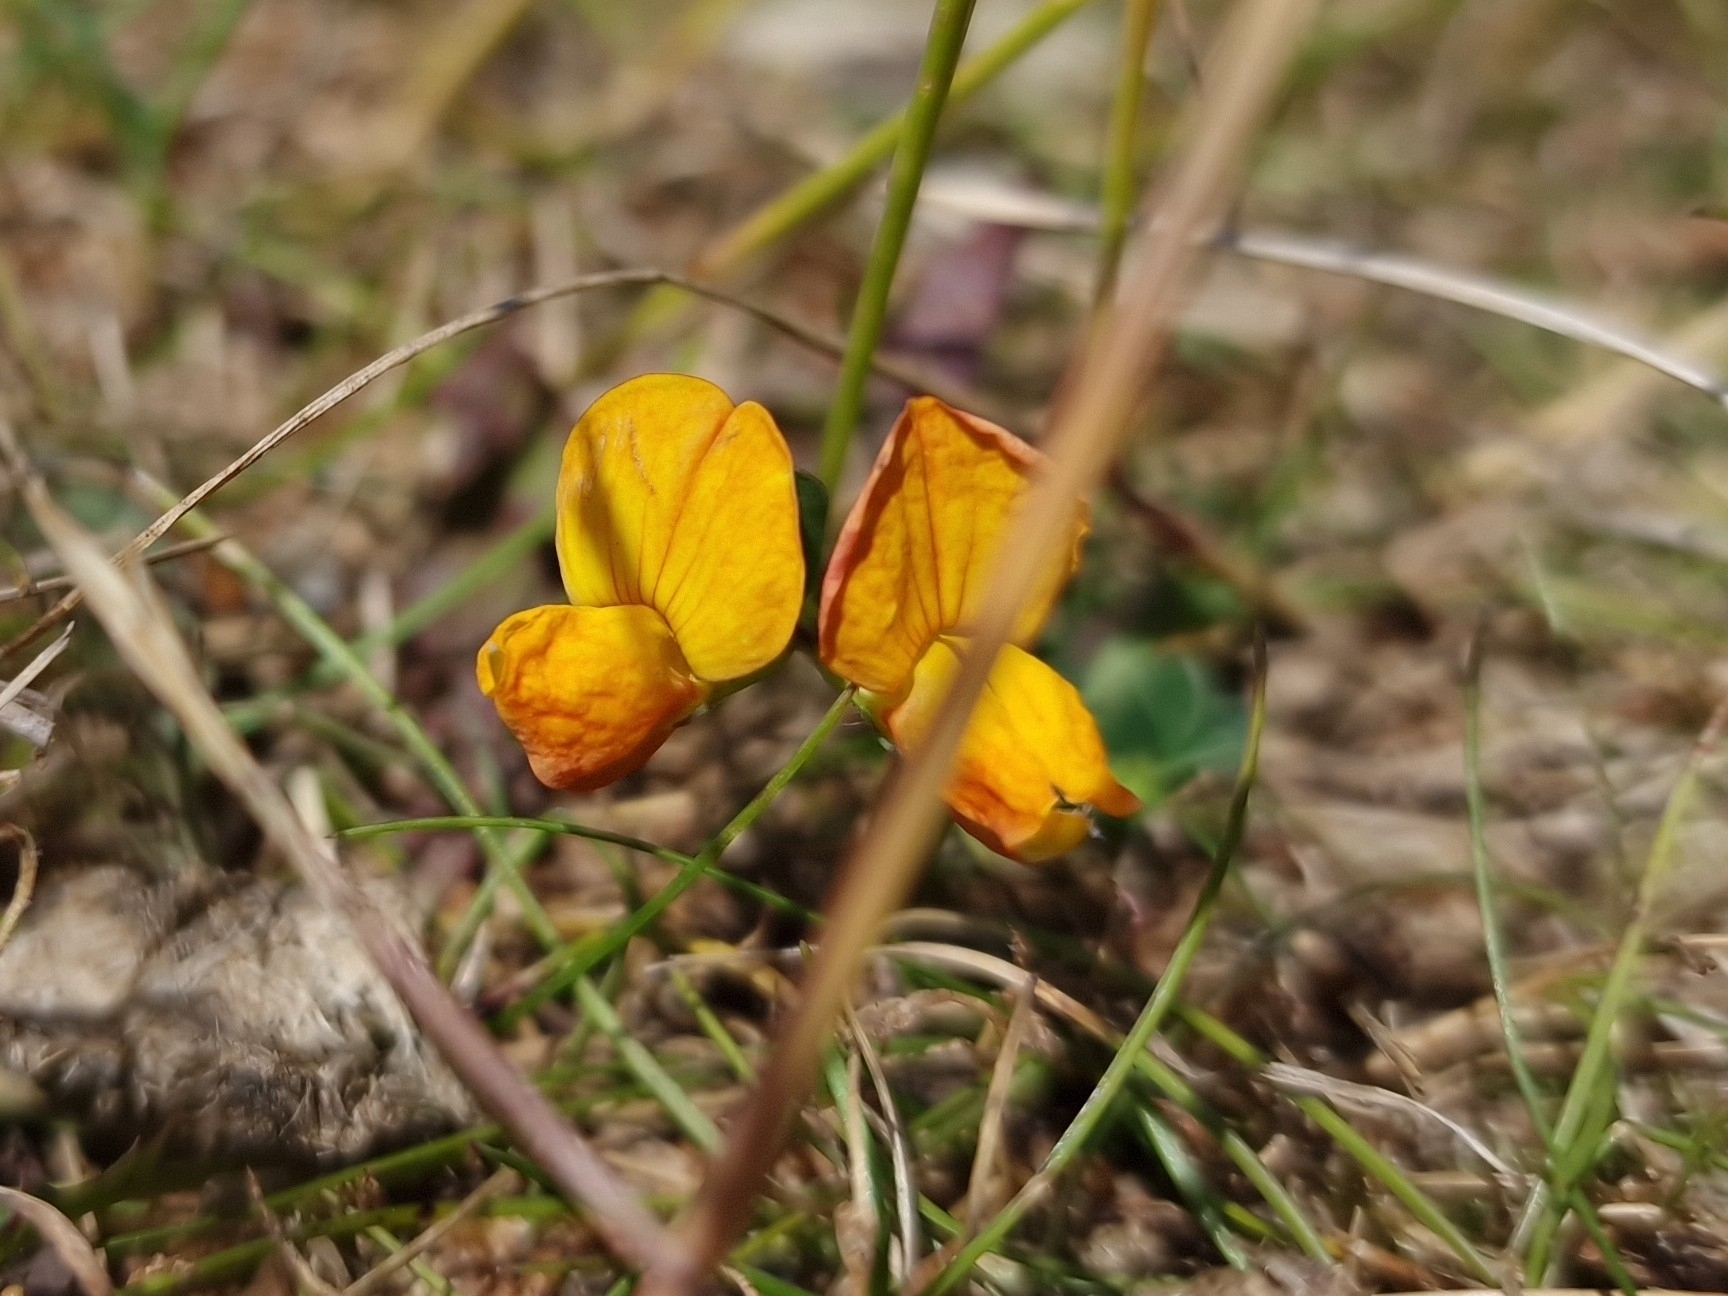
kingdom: Plantae
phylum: Tracheophyta
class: Magnoliopsida
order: Fabales
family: Fabaceae
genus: Lotus
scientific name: Lotus corniculatus
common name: Common bird's-foot-trefoil
